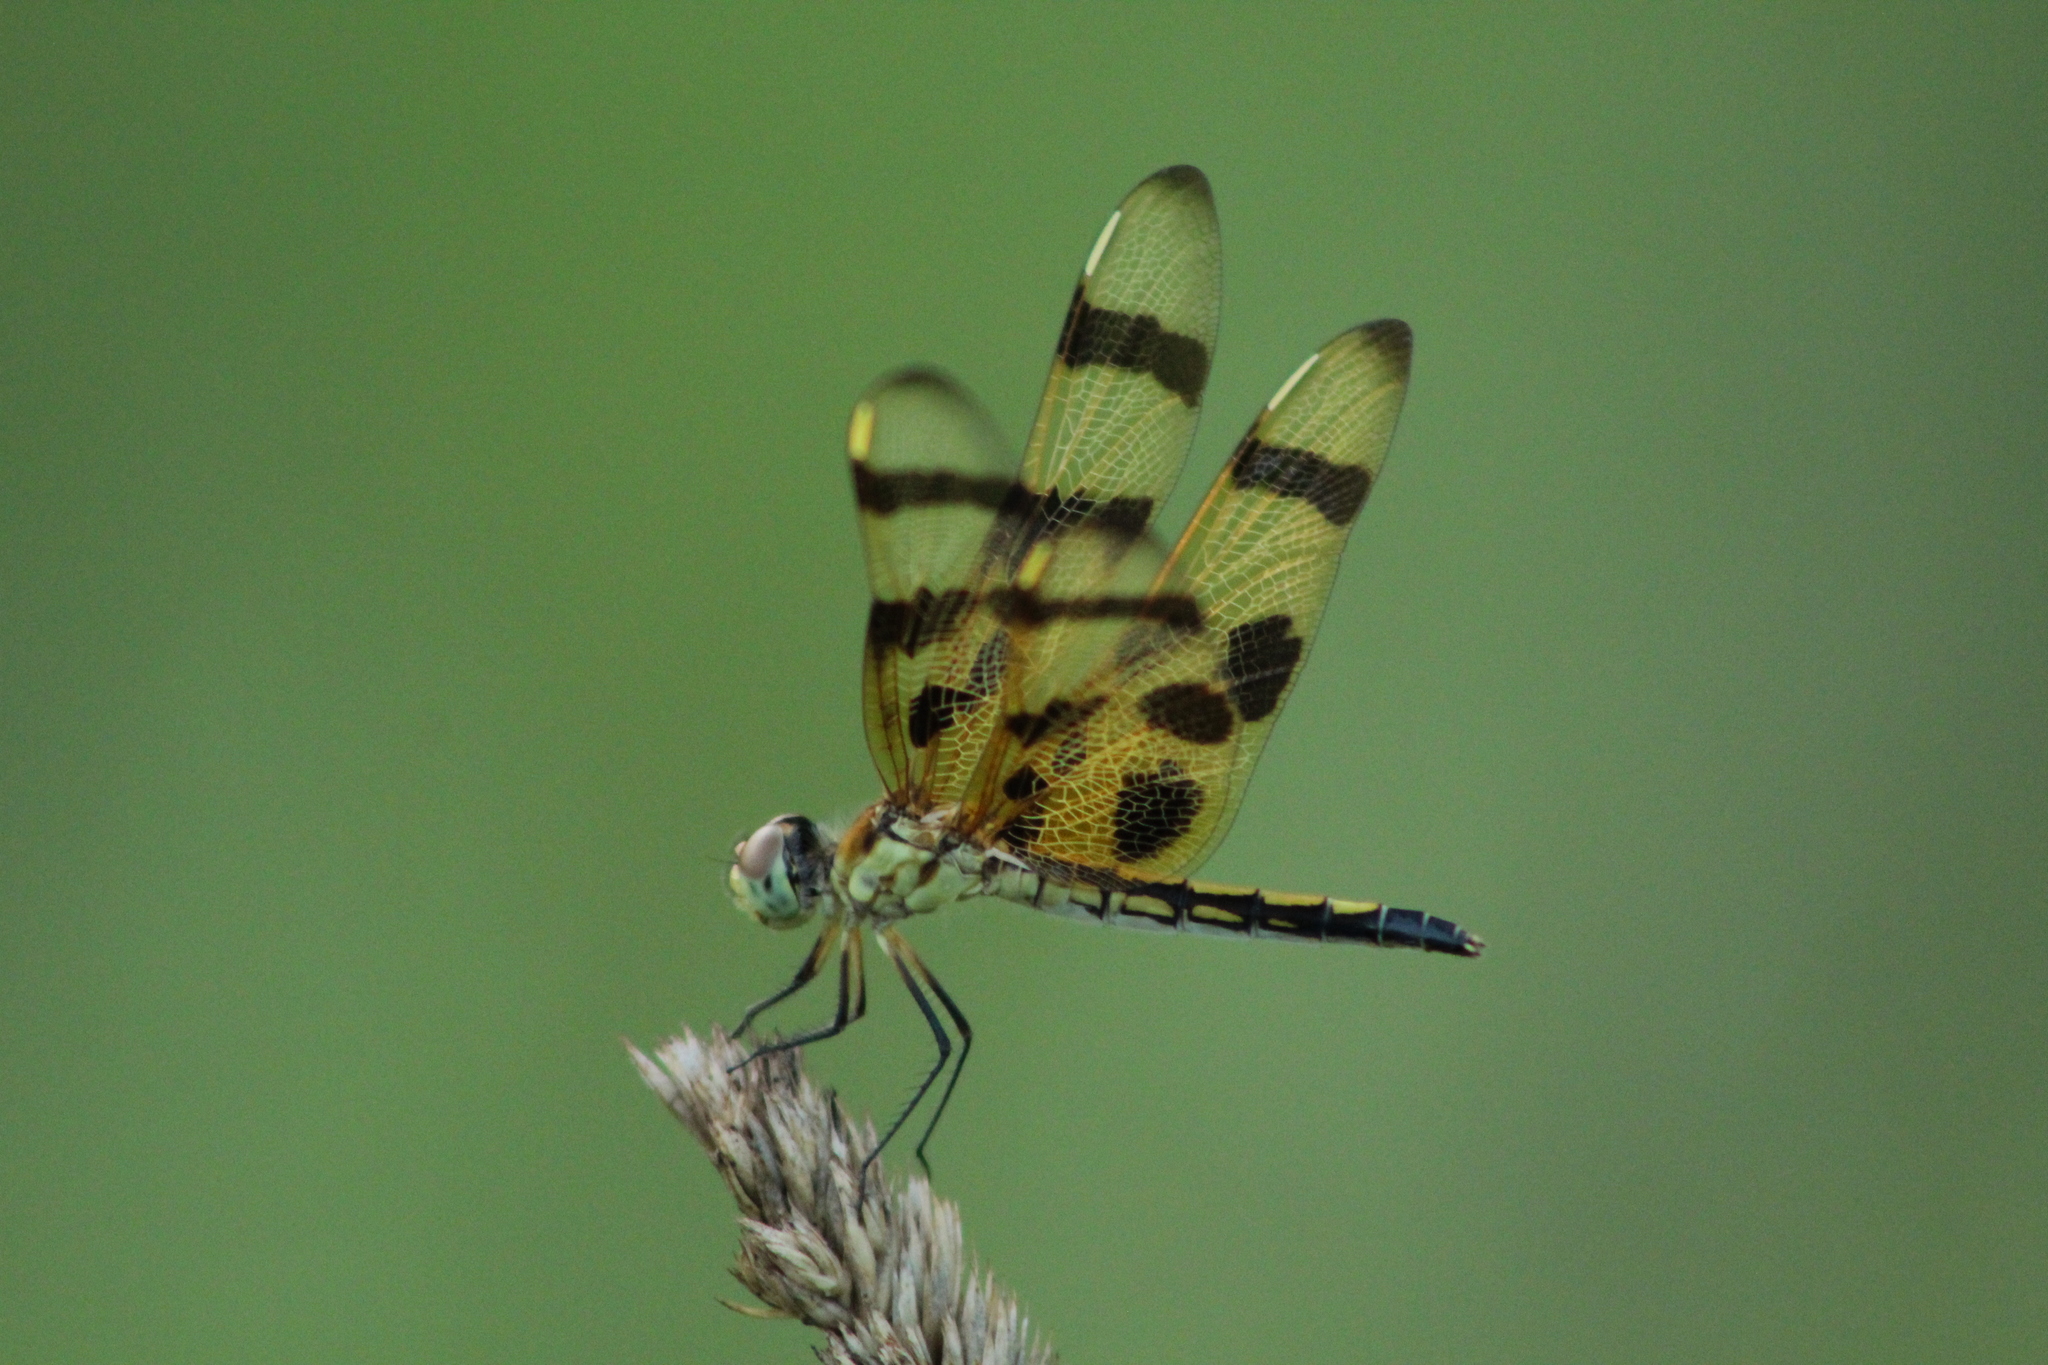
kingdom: Animalia
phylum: Arthropoda
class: Insecta
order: Odonata
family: Libellulidae
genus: Celithemis
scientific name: Celithemis eponina
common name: Halloween pennant
